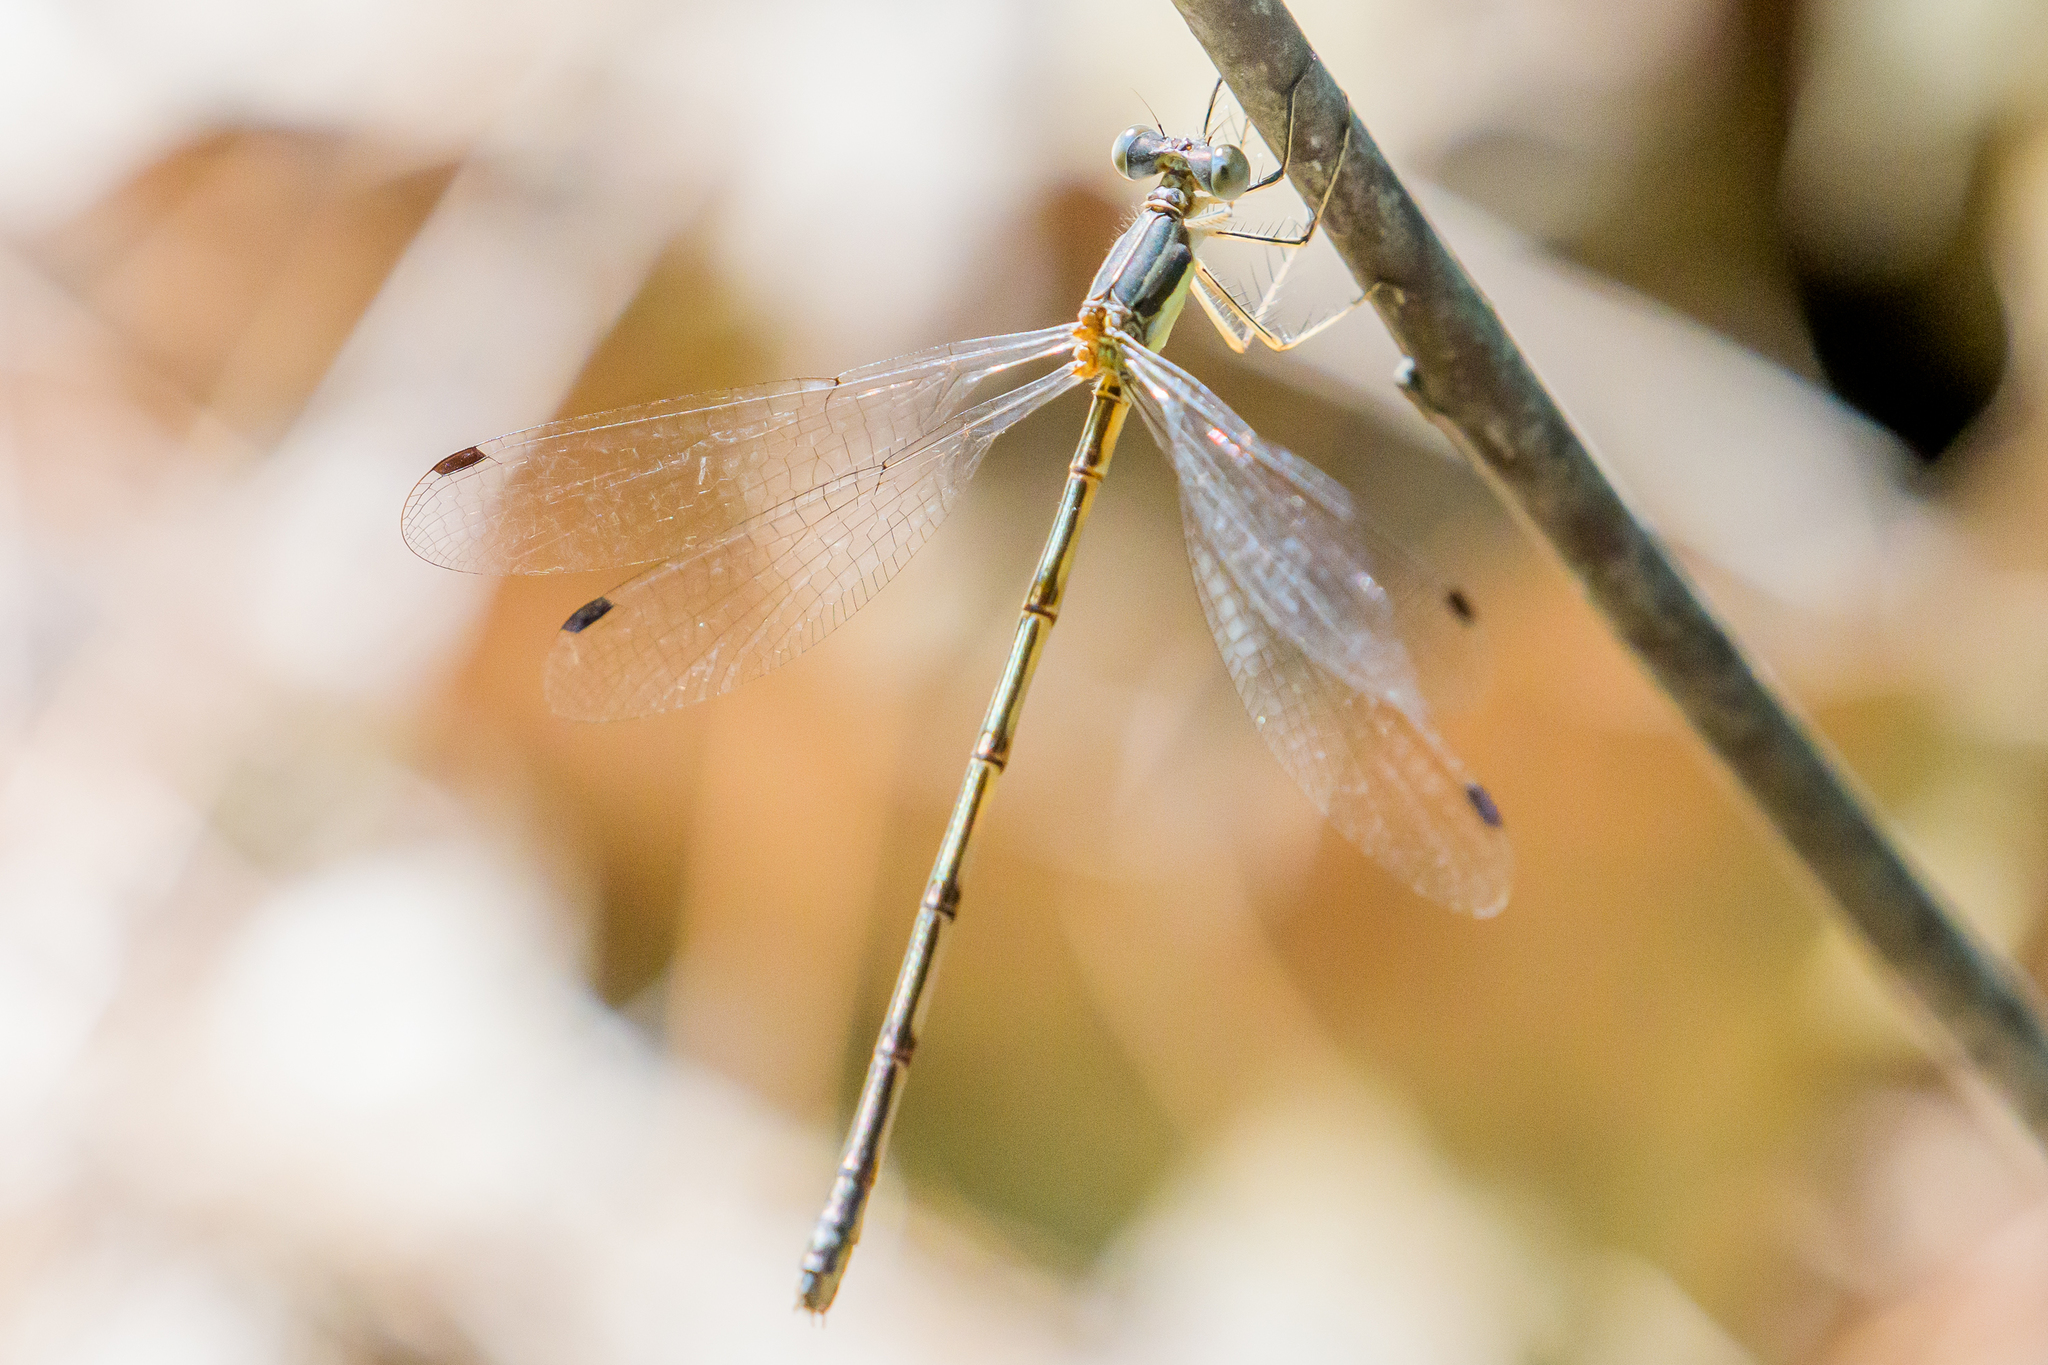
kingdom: Animalia
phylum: Arthropoda
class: Insecta
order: Odonata
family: Lestidae
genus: Lestes
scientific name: Lestes rectangularis
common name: Slender spreadwing
